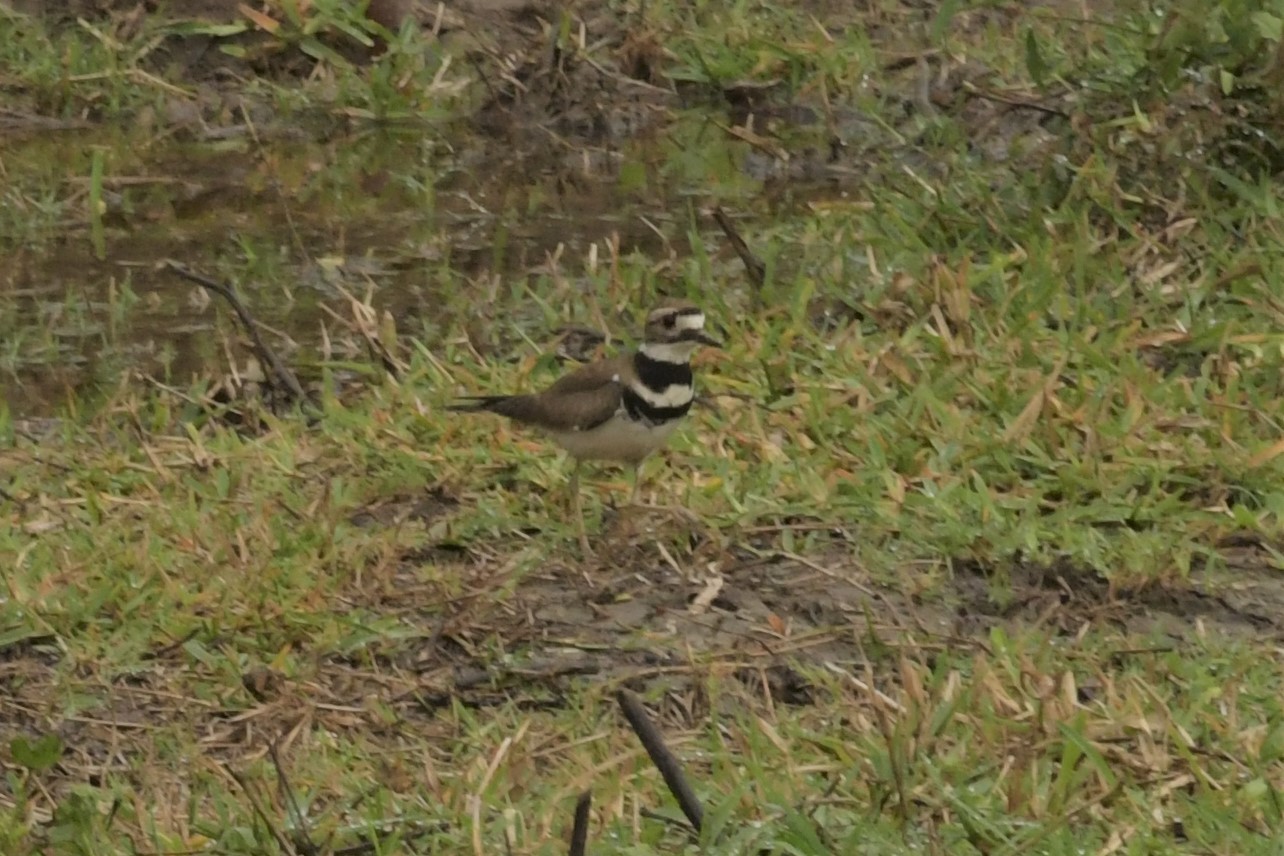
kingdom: Animalia
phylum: Chordata
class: Aves
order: Charadriiformes
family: Charadriidae
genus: Charadrius
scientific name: Charadrius vociferus
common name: Killdeer
